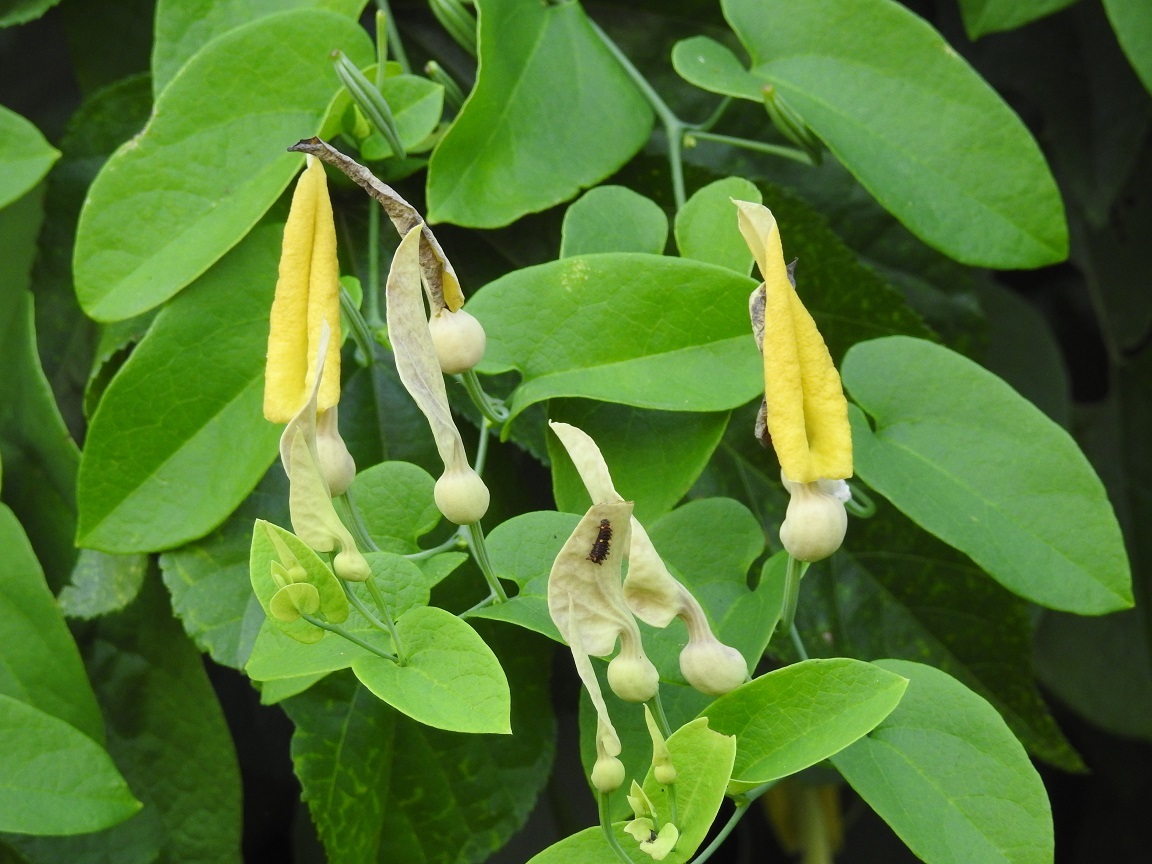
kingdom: Plantae
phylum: Tracheophyta
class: Magnoliopsida
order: Piperales
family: Aristolochiaceae
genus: Aristolochia
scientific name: Aristolochia inflata
